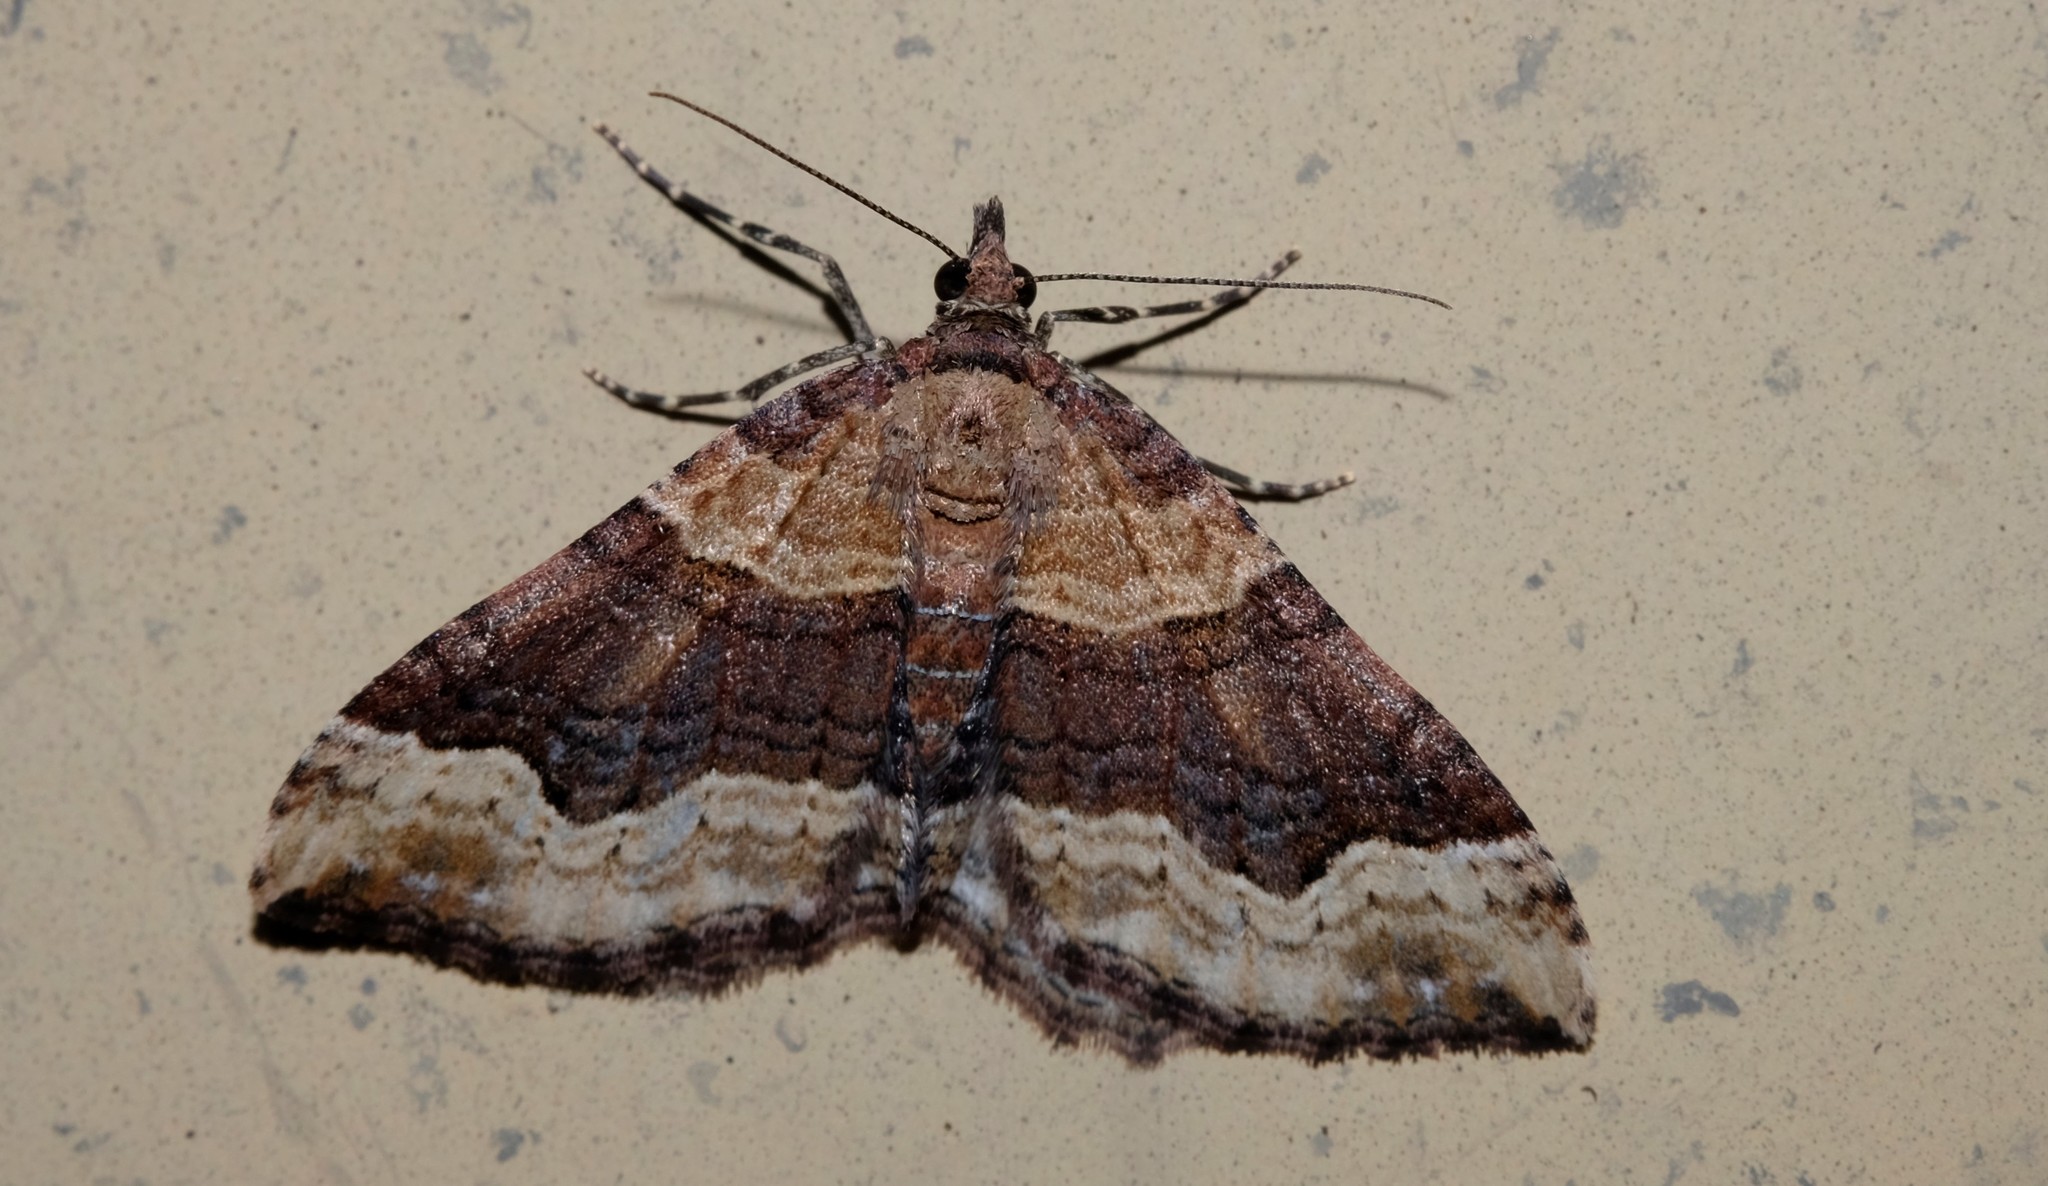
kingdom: Animalia
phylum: Arthropoda
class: Insecta
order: Lepidoptera
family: Geometridae
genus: Epyaxa
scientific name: Epyaxa subidaria
